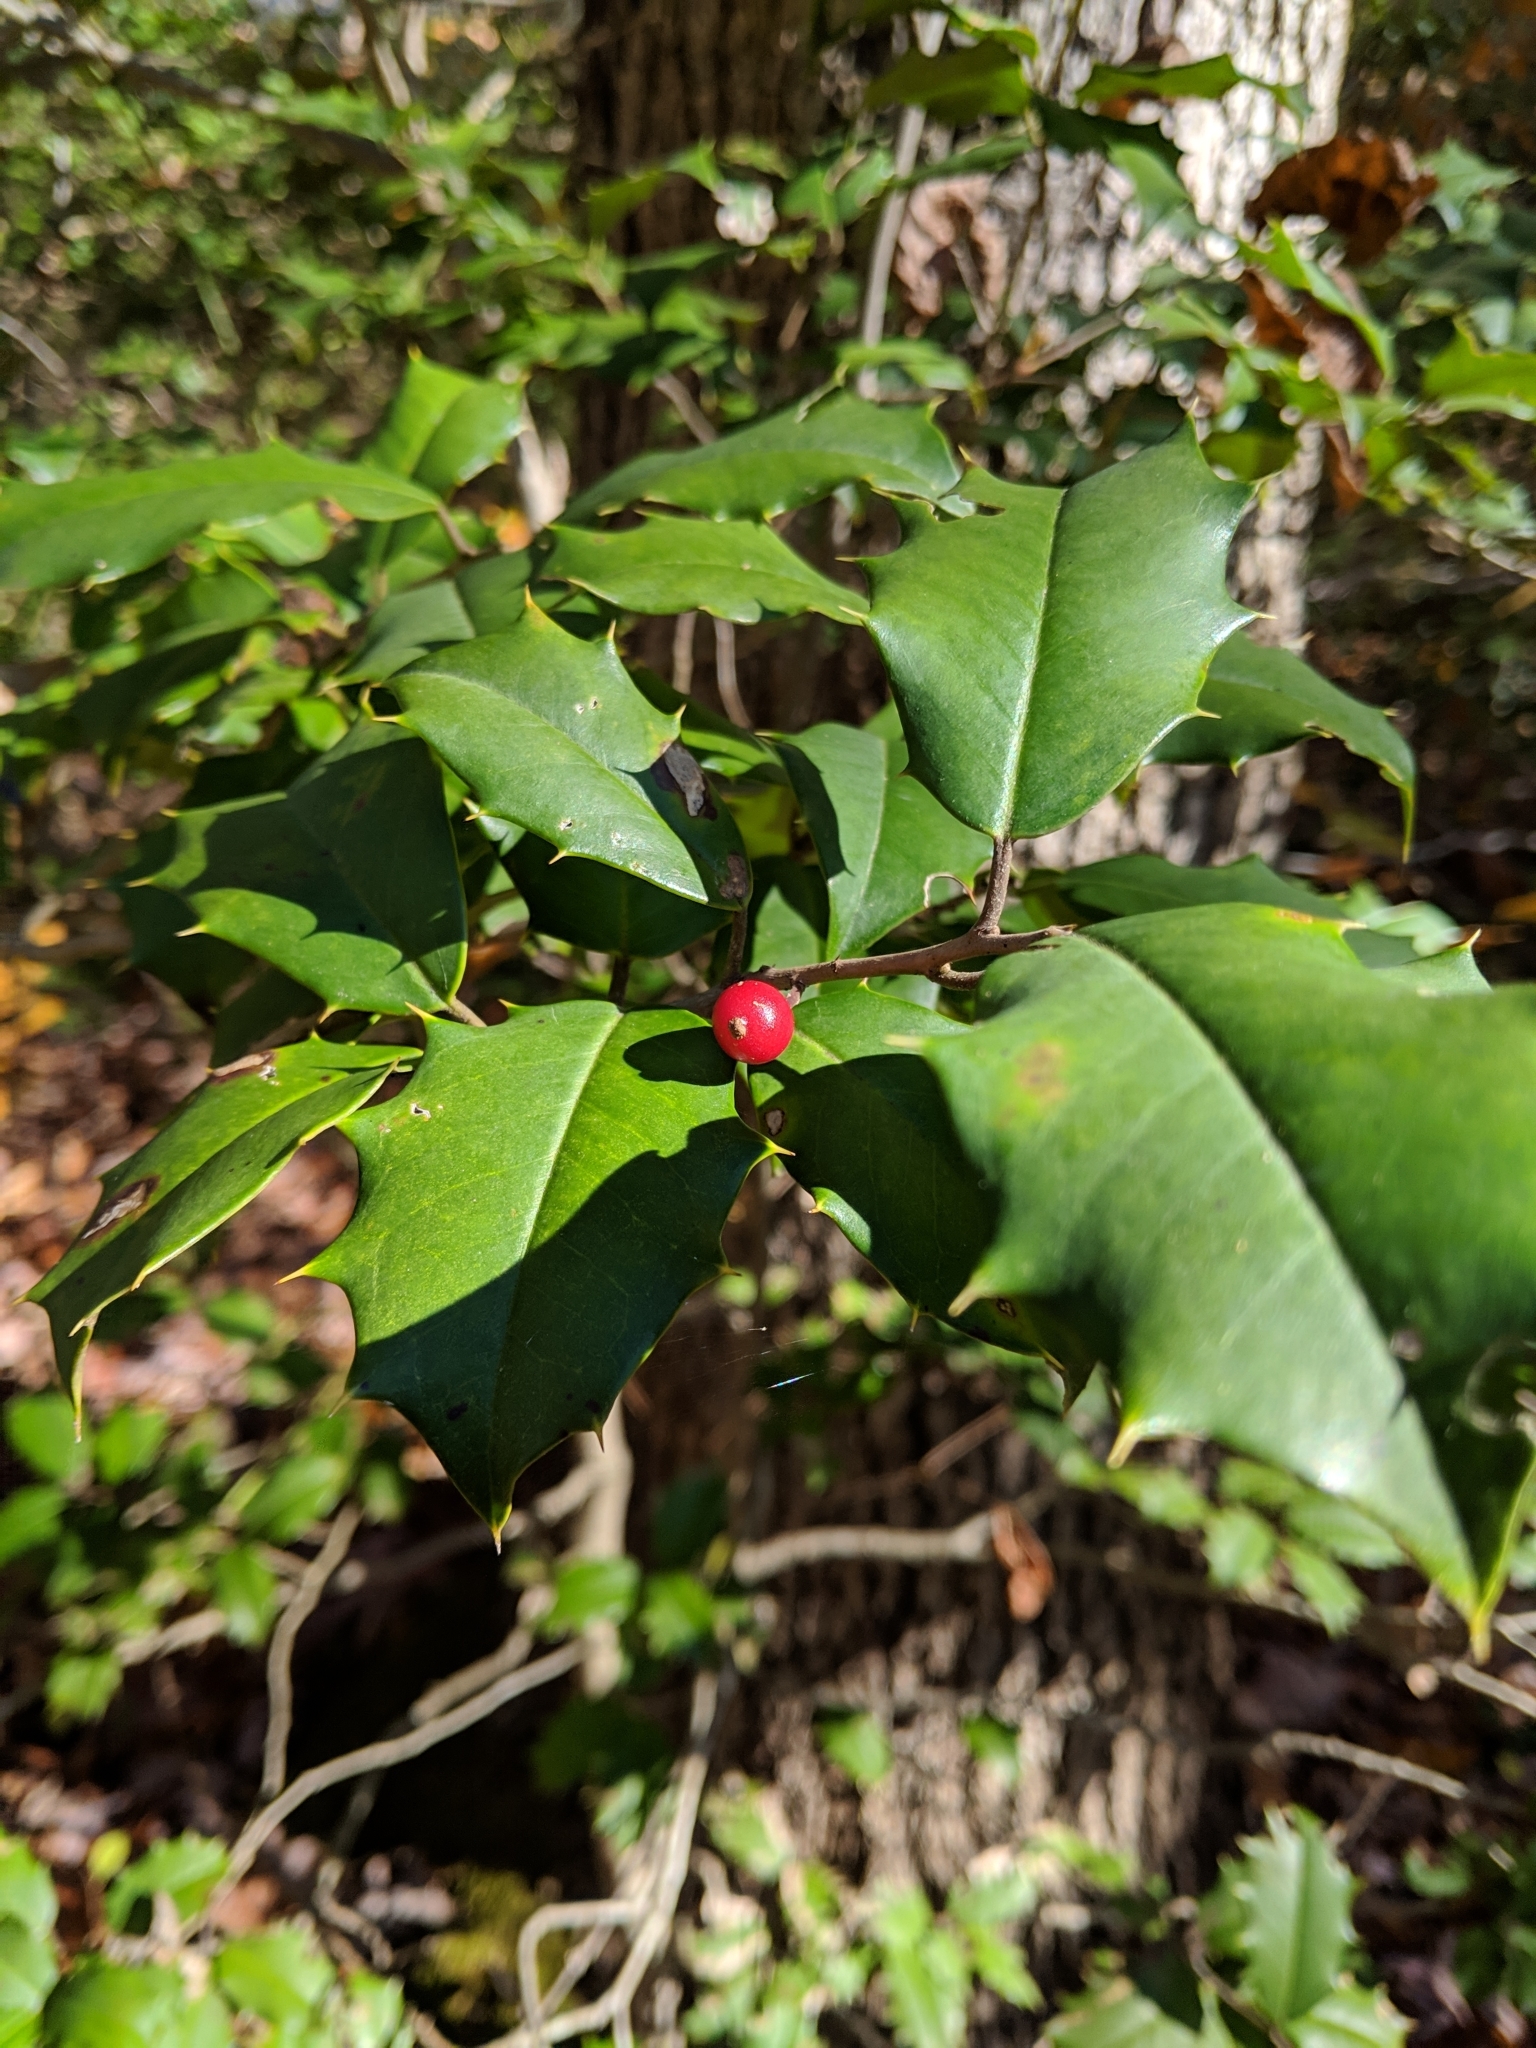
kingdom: Plantae
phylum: Tracheophyta
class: Magnoliopsida
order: Aquifoliales
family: Aquifoliaceae
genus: Ilex
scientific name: Ilex opaca
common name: American holly
